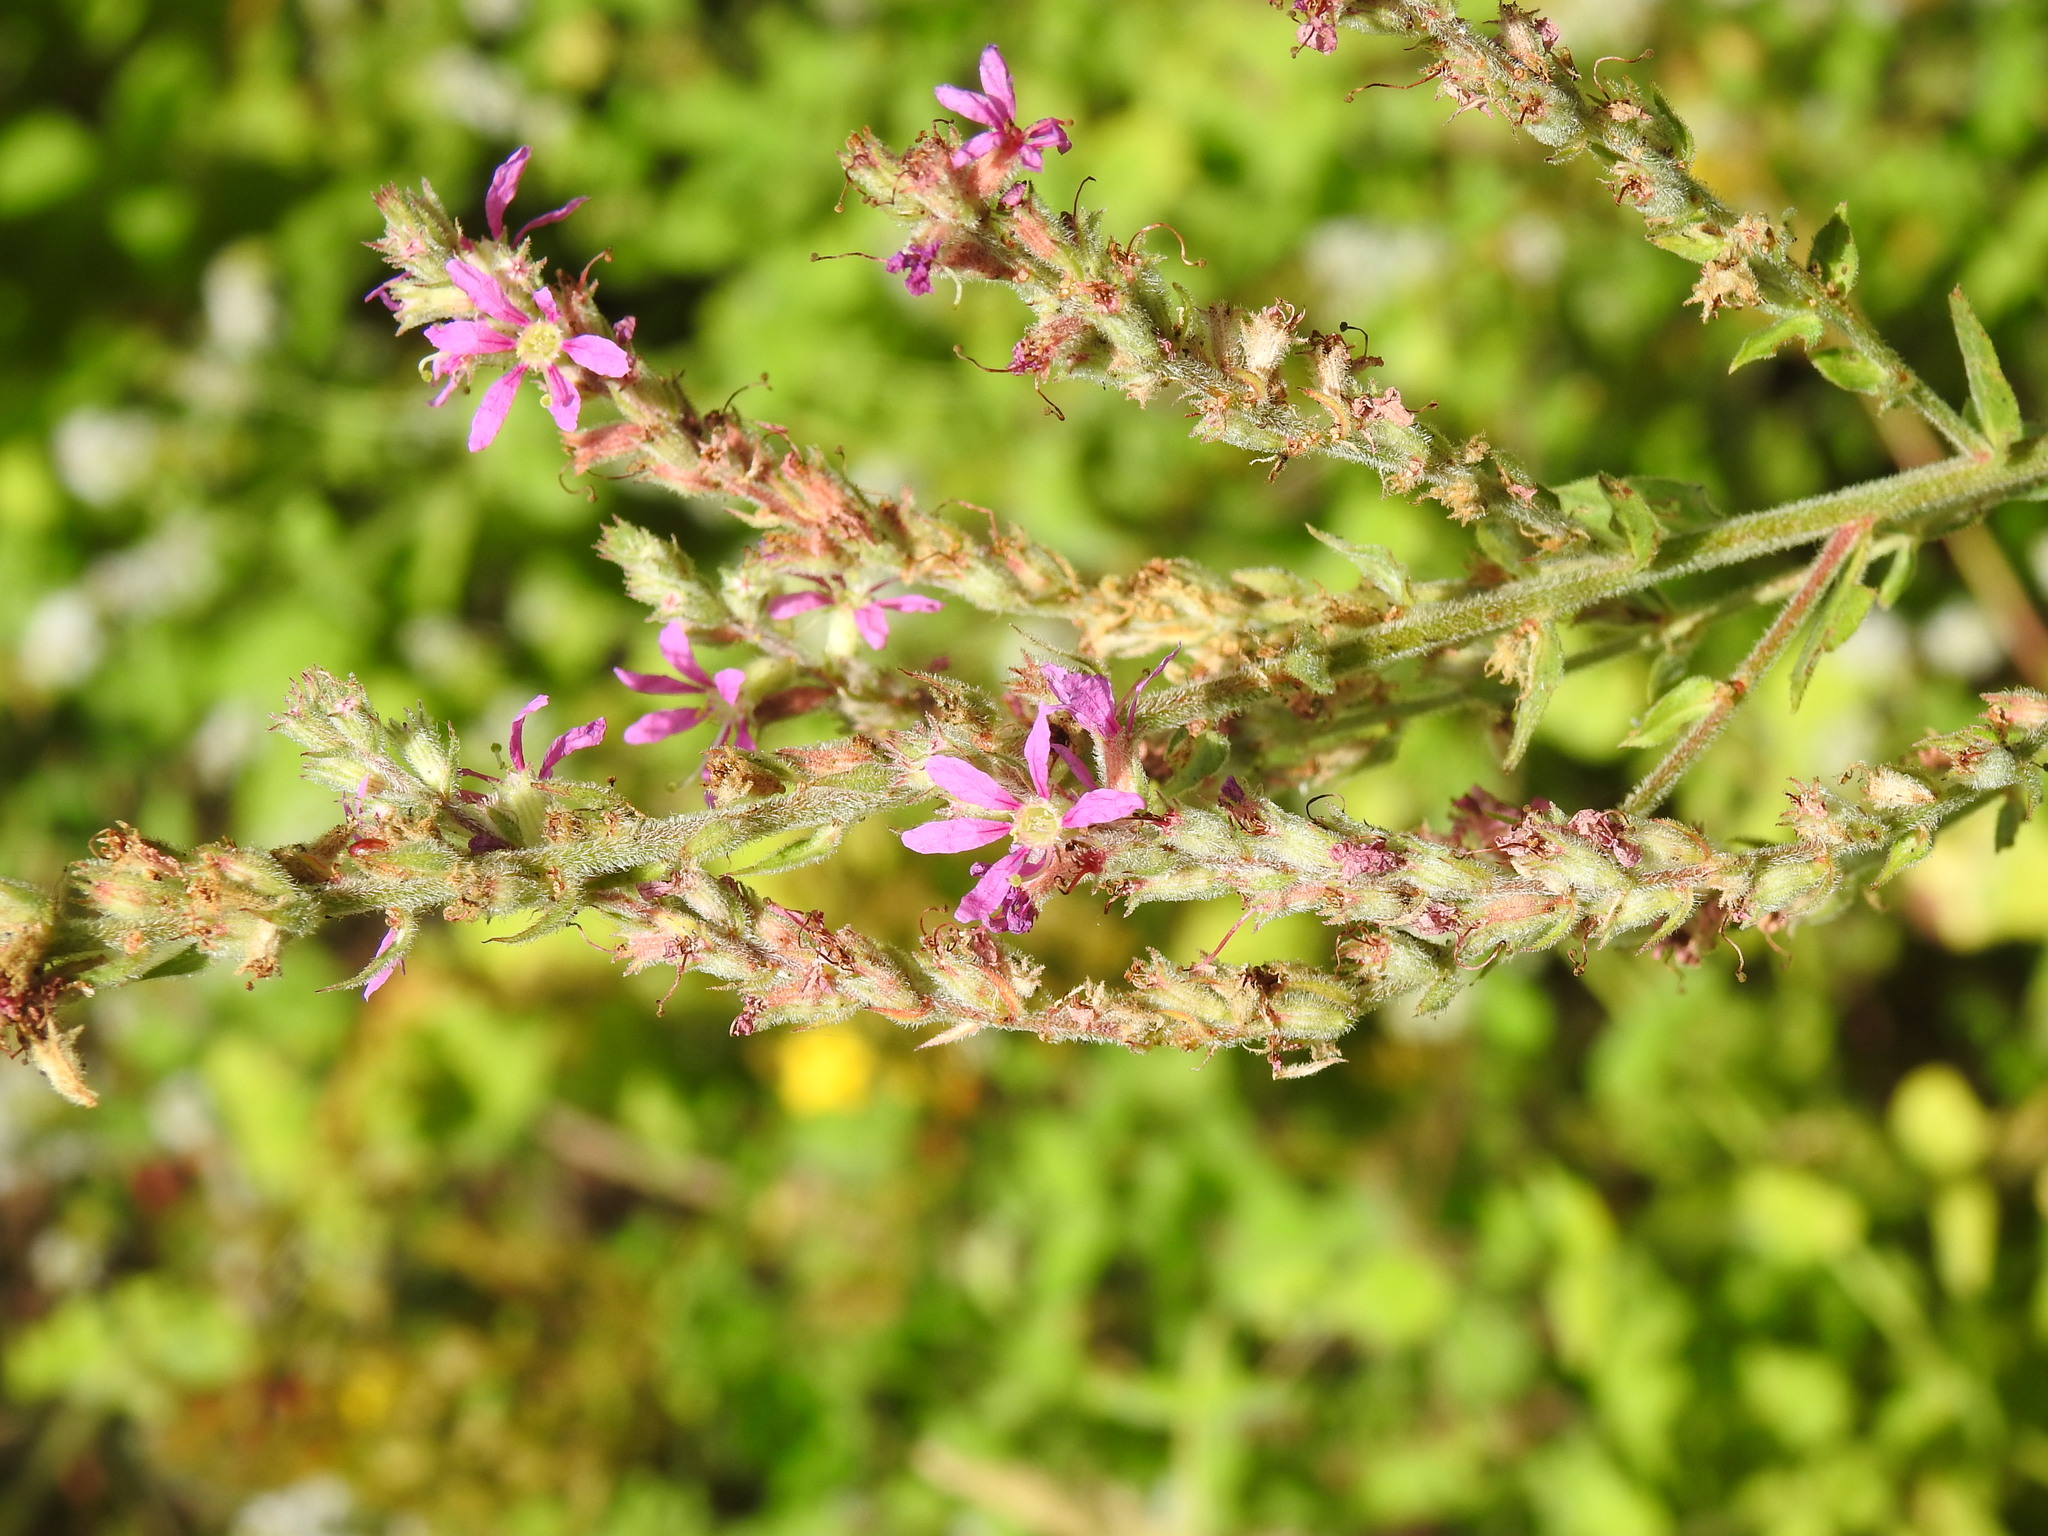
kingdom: Plantae
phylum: Tracheophyta
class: Magnoliopsida
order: Myrtales
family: Lythraceae
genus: Lythrum
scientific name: Lythrum salicaria
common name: Purple loosestrife
